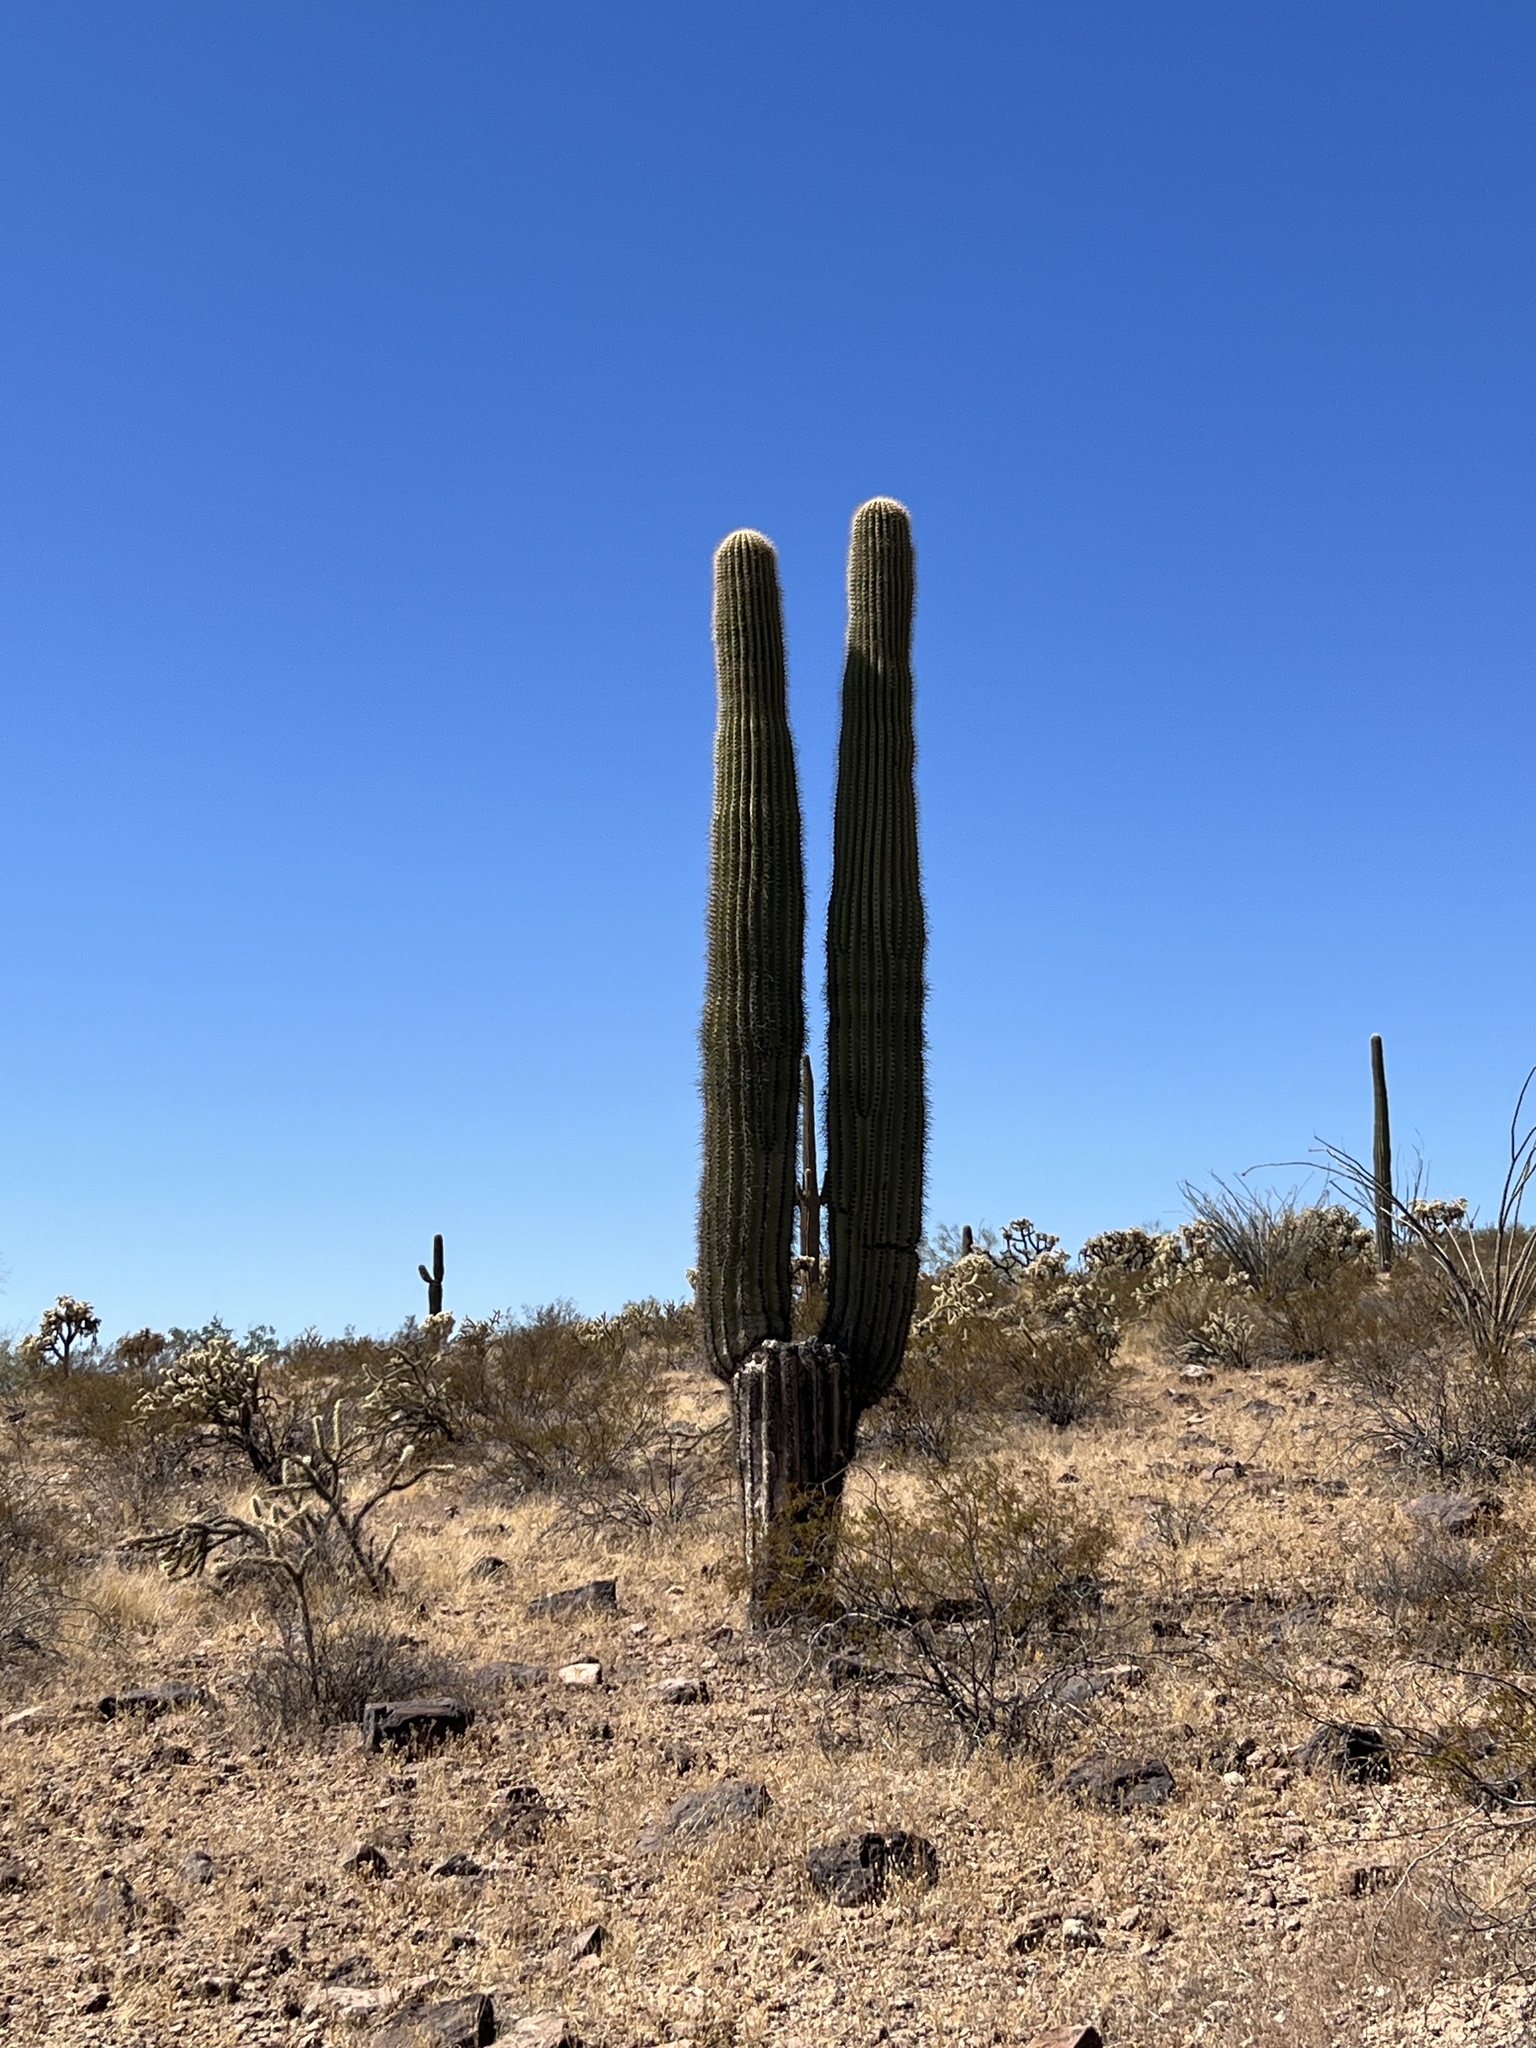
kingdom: Plantae
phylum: Tracheophyta
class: Magnoliopsida
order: Caryophyllales
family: Cactaceae
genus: Carnegiea
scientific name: Carnegiea gigantea
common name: Saguaro
